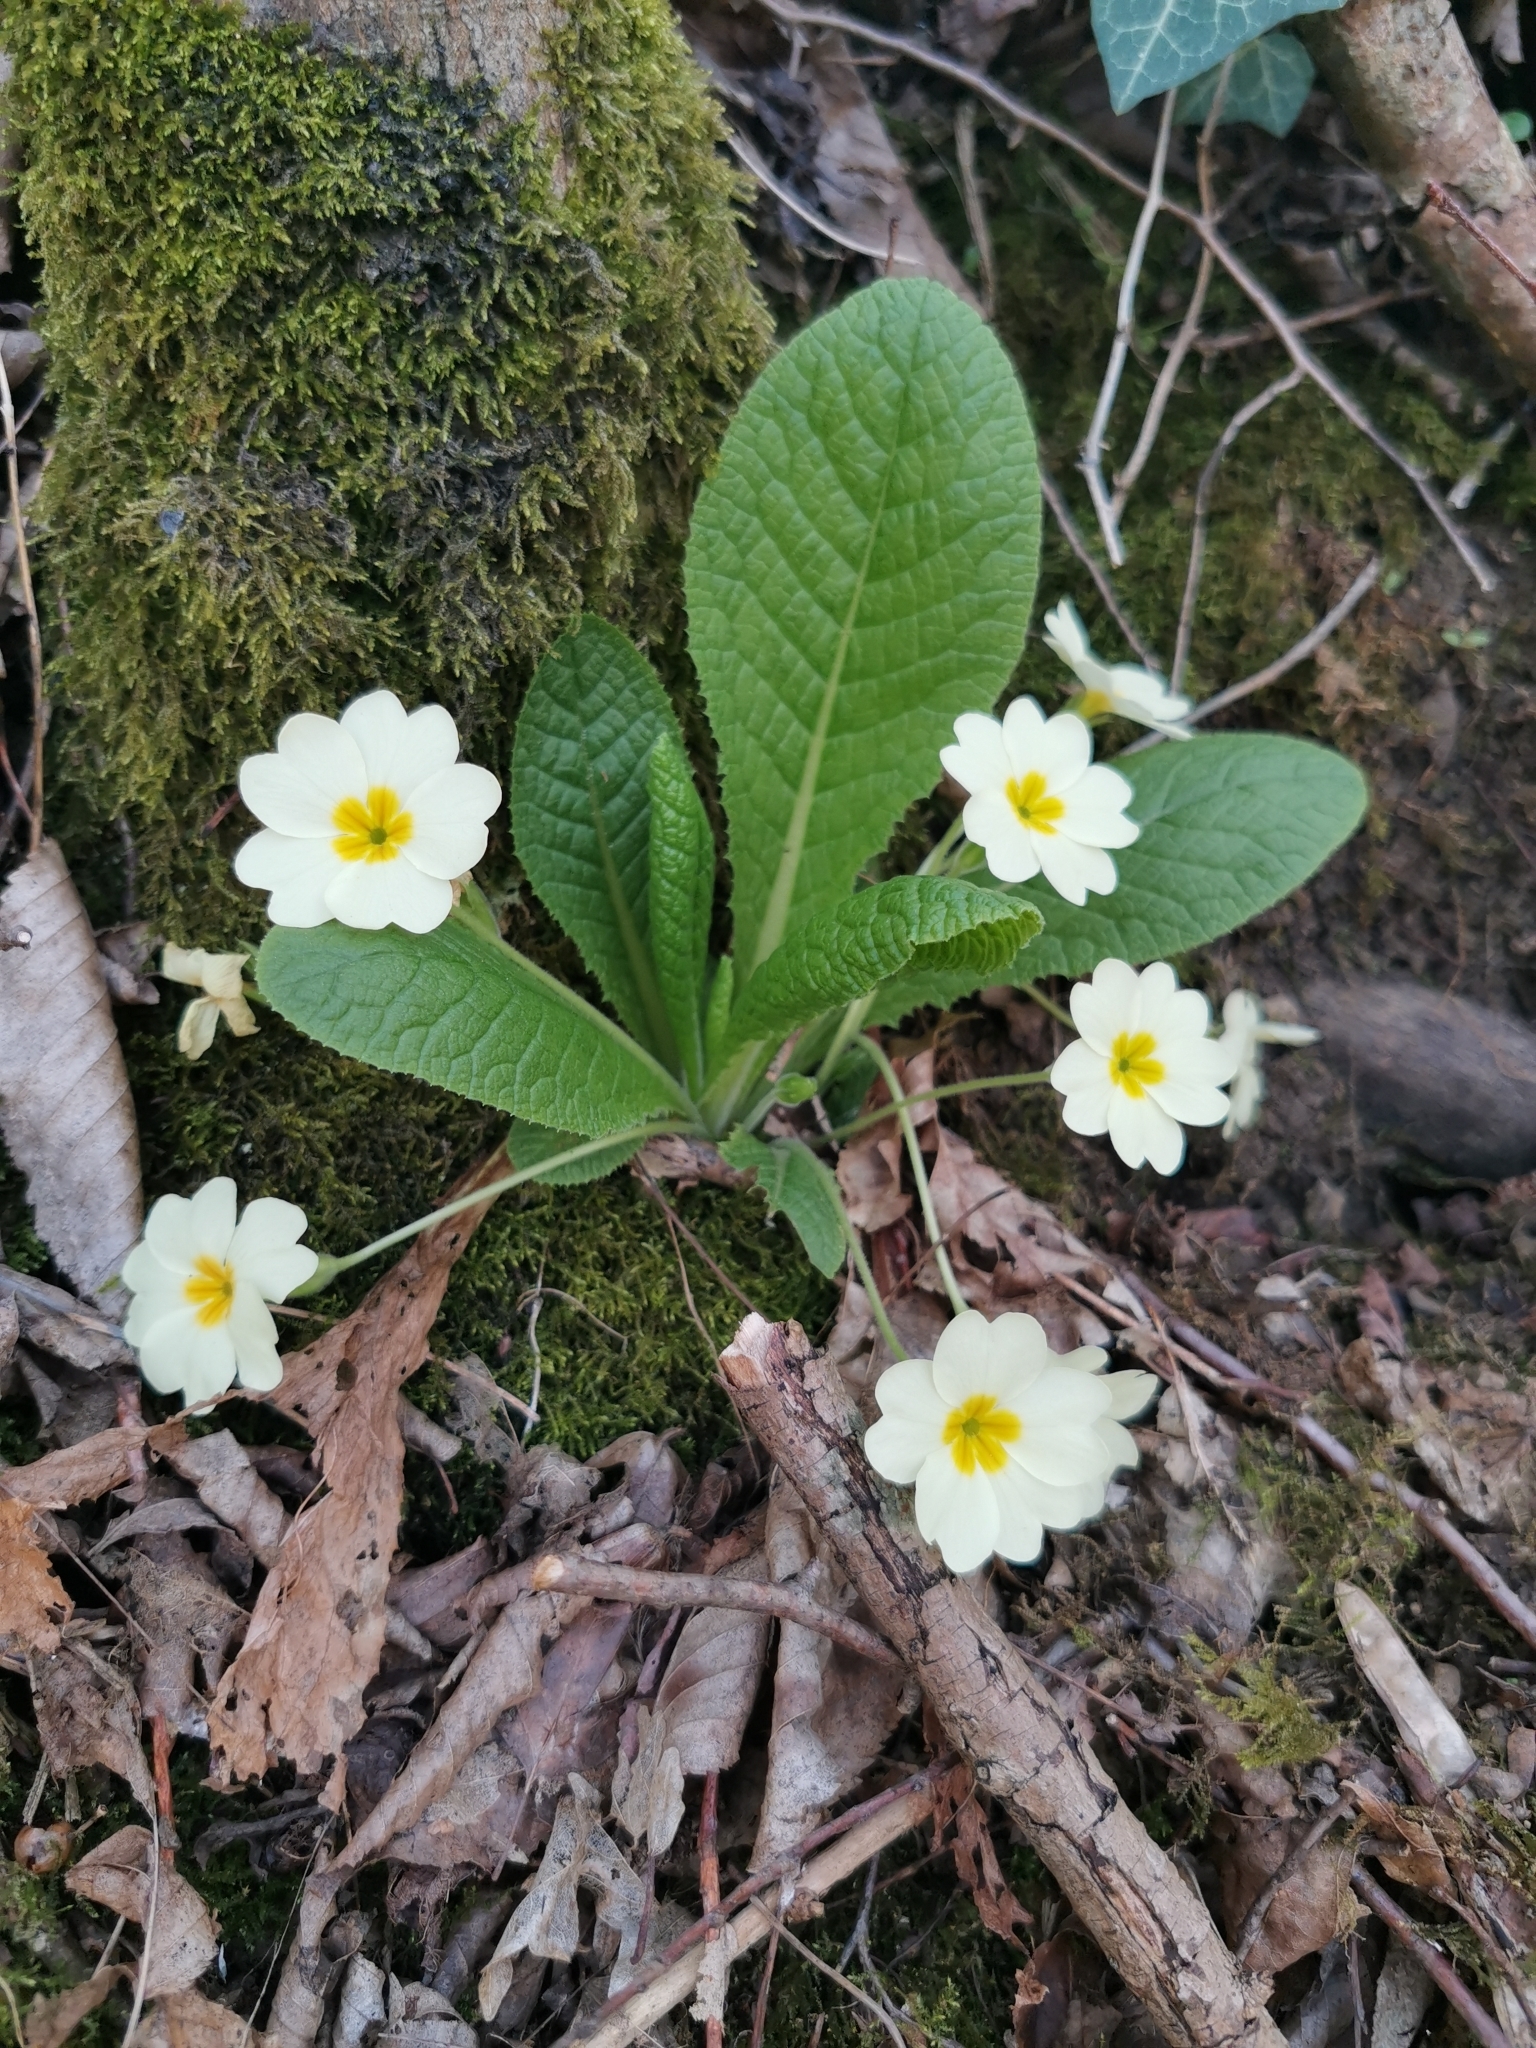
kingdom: Plantae
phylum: Tracheophyta
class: Magnoliopsida
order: Ericales
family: Primulaceae
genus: Primula
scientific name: Primula vulgaris
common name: Primrose
